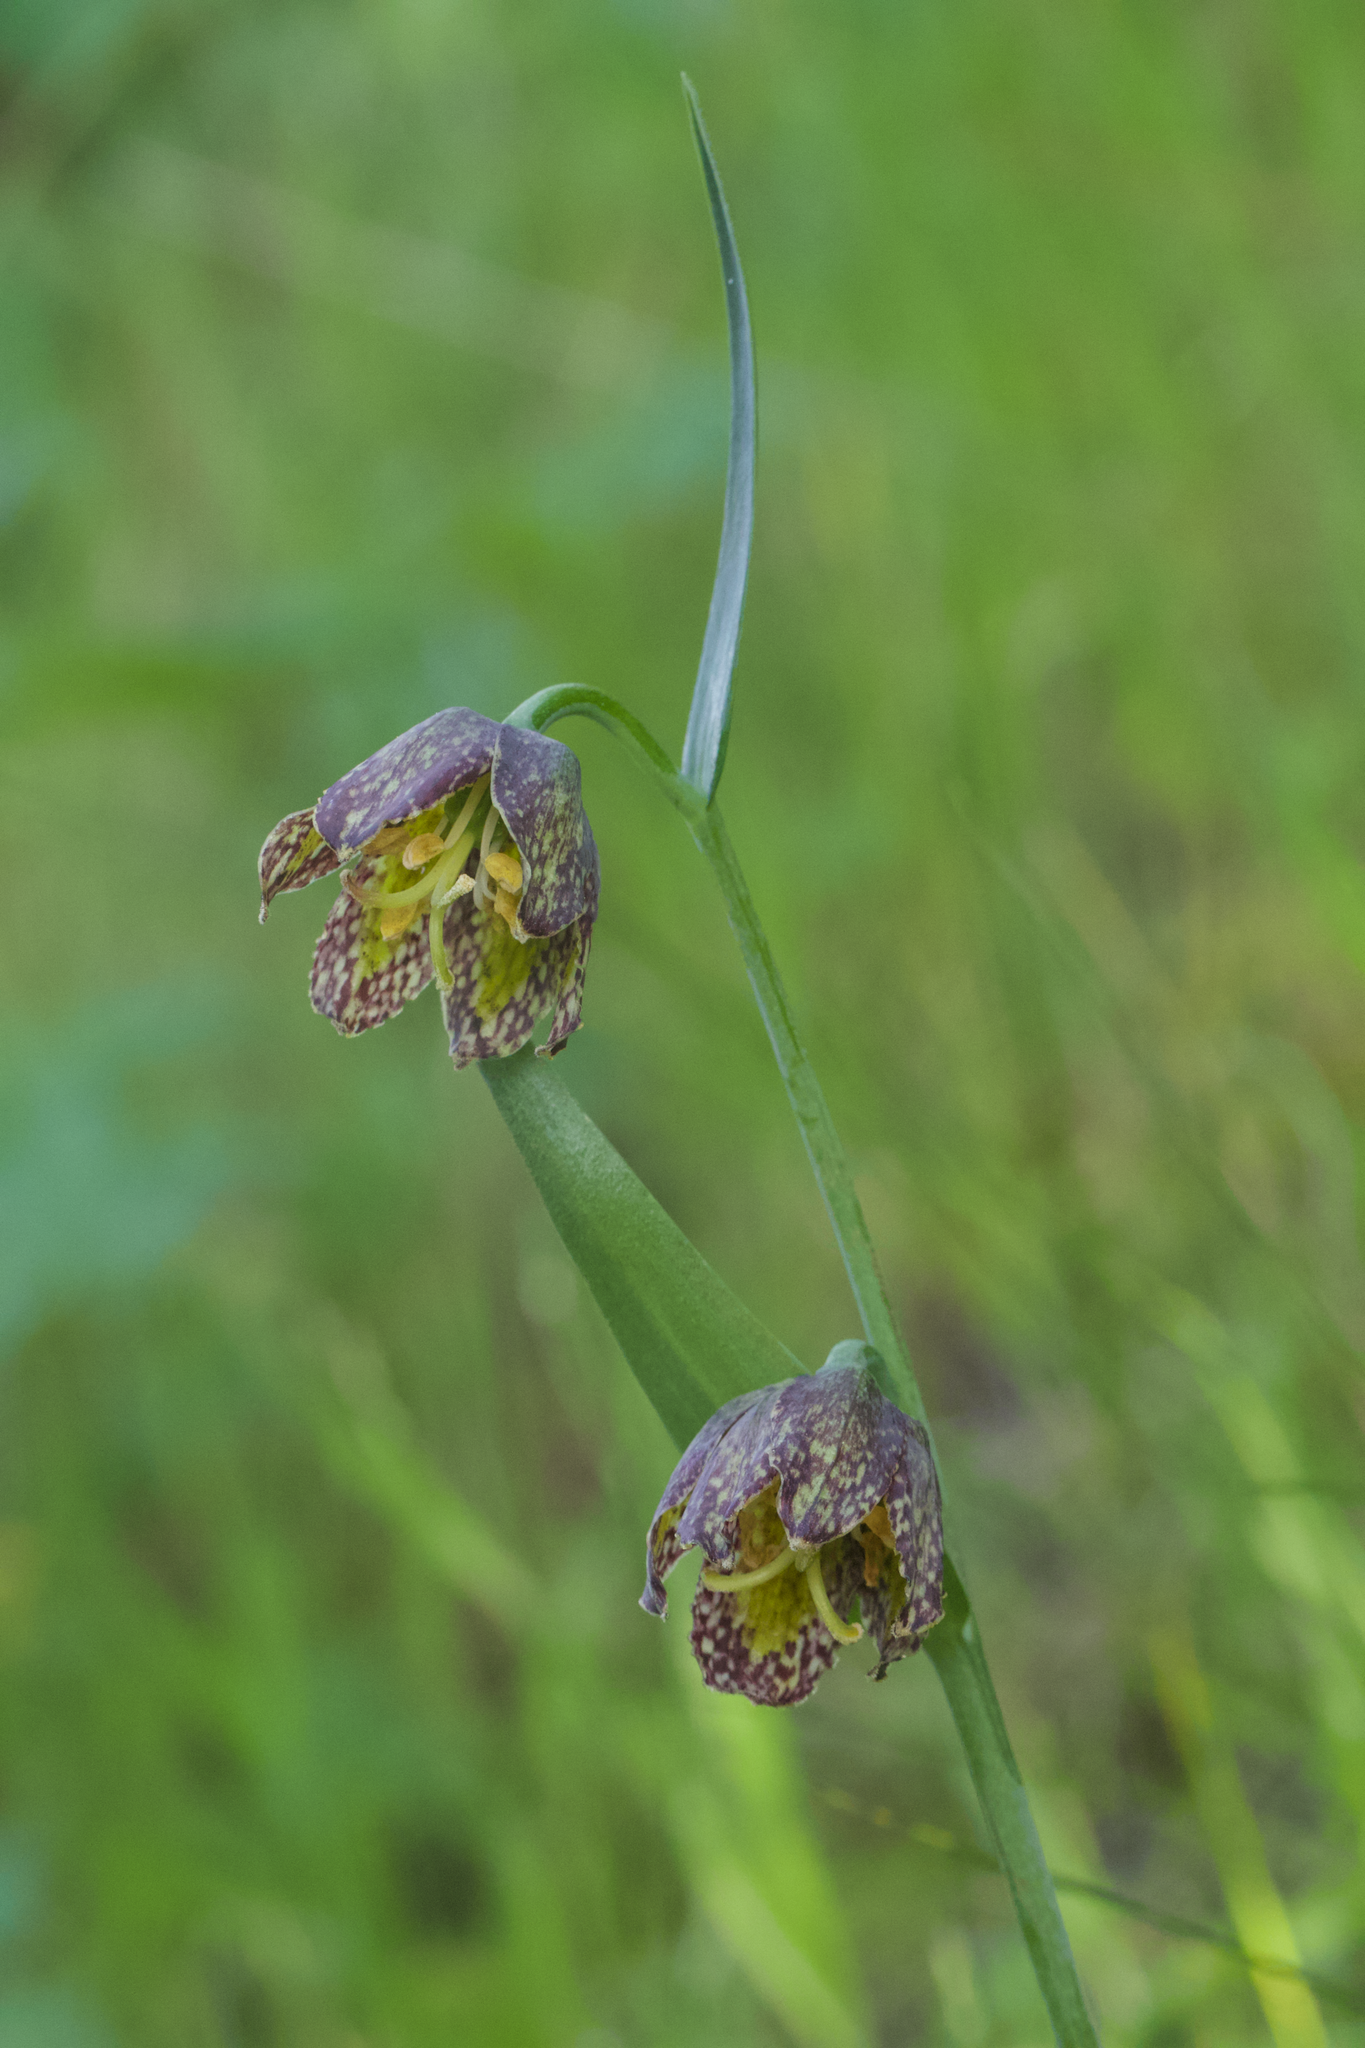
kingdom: Plantae
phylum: Tracheophyta
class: Liliopsida
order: Liliales
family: Liliaceae
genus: Fritillaria
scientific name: Fritillaria affinis
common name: Ojai fritillary
